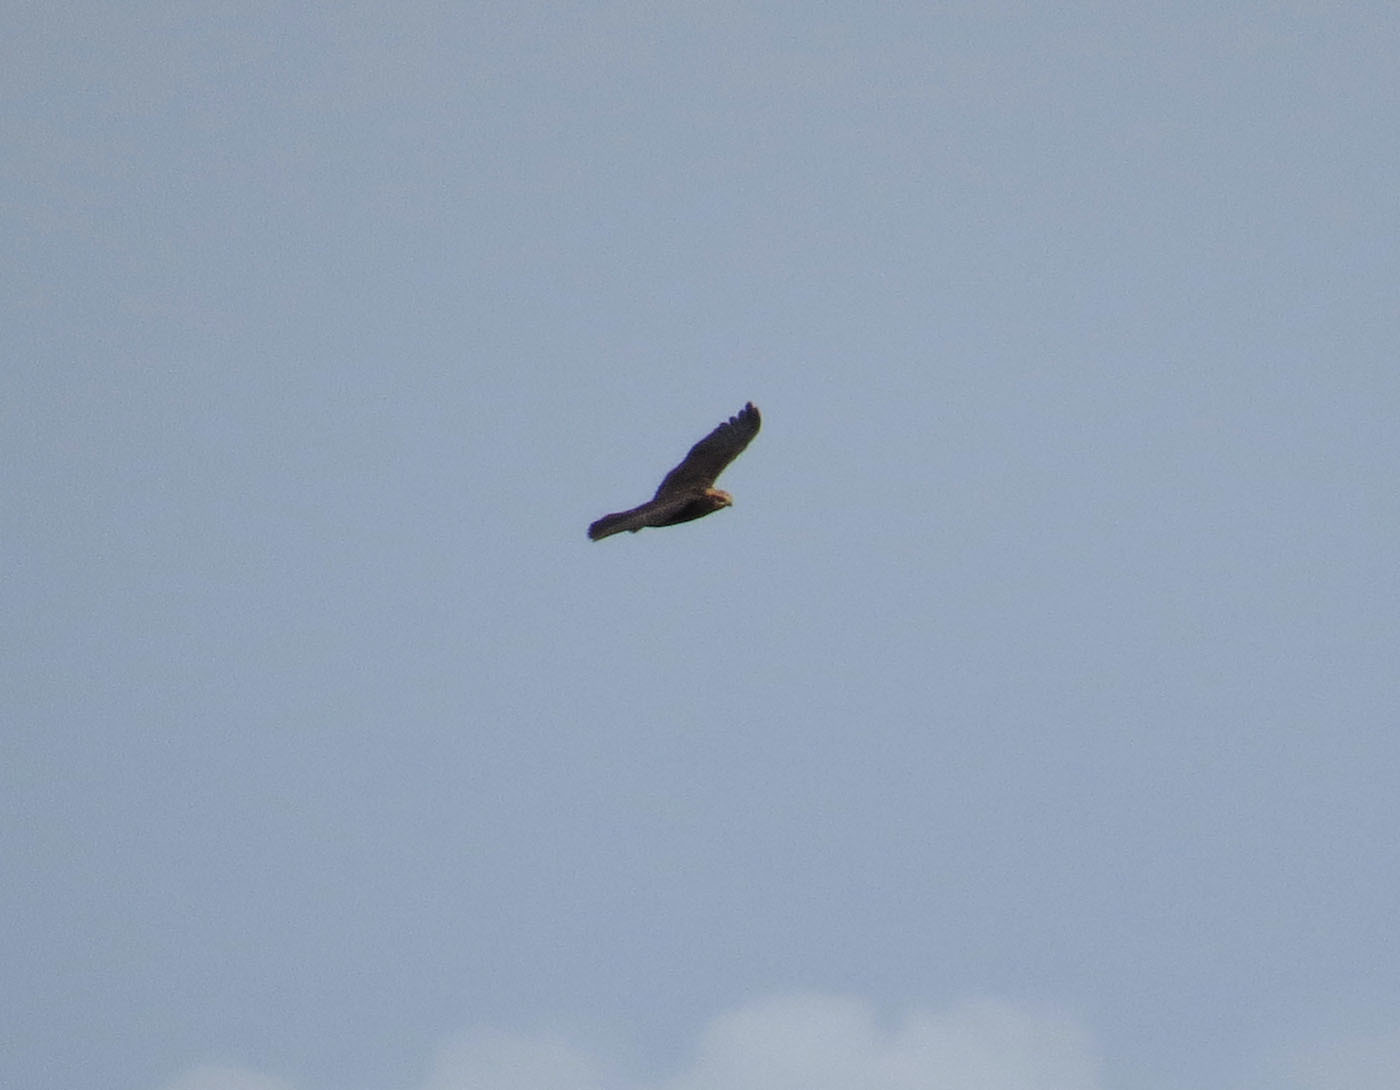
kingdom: Animalia
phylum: Chordata
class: Aves
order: Accipitriformes
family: Accipitridae
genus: Circus
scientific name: Circus aeruginosus
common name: Western marsh harrier
